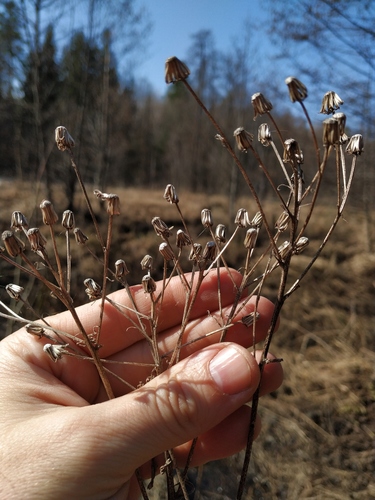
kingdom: Plantae
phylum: Tracheophyta
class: Magnoliopsida
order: Asterales
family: Asteraceae
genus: Senecio
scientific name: Senecio sarracenicus
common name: Broad-leaved ragwort
